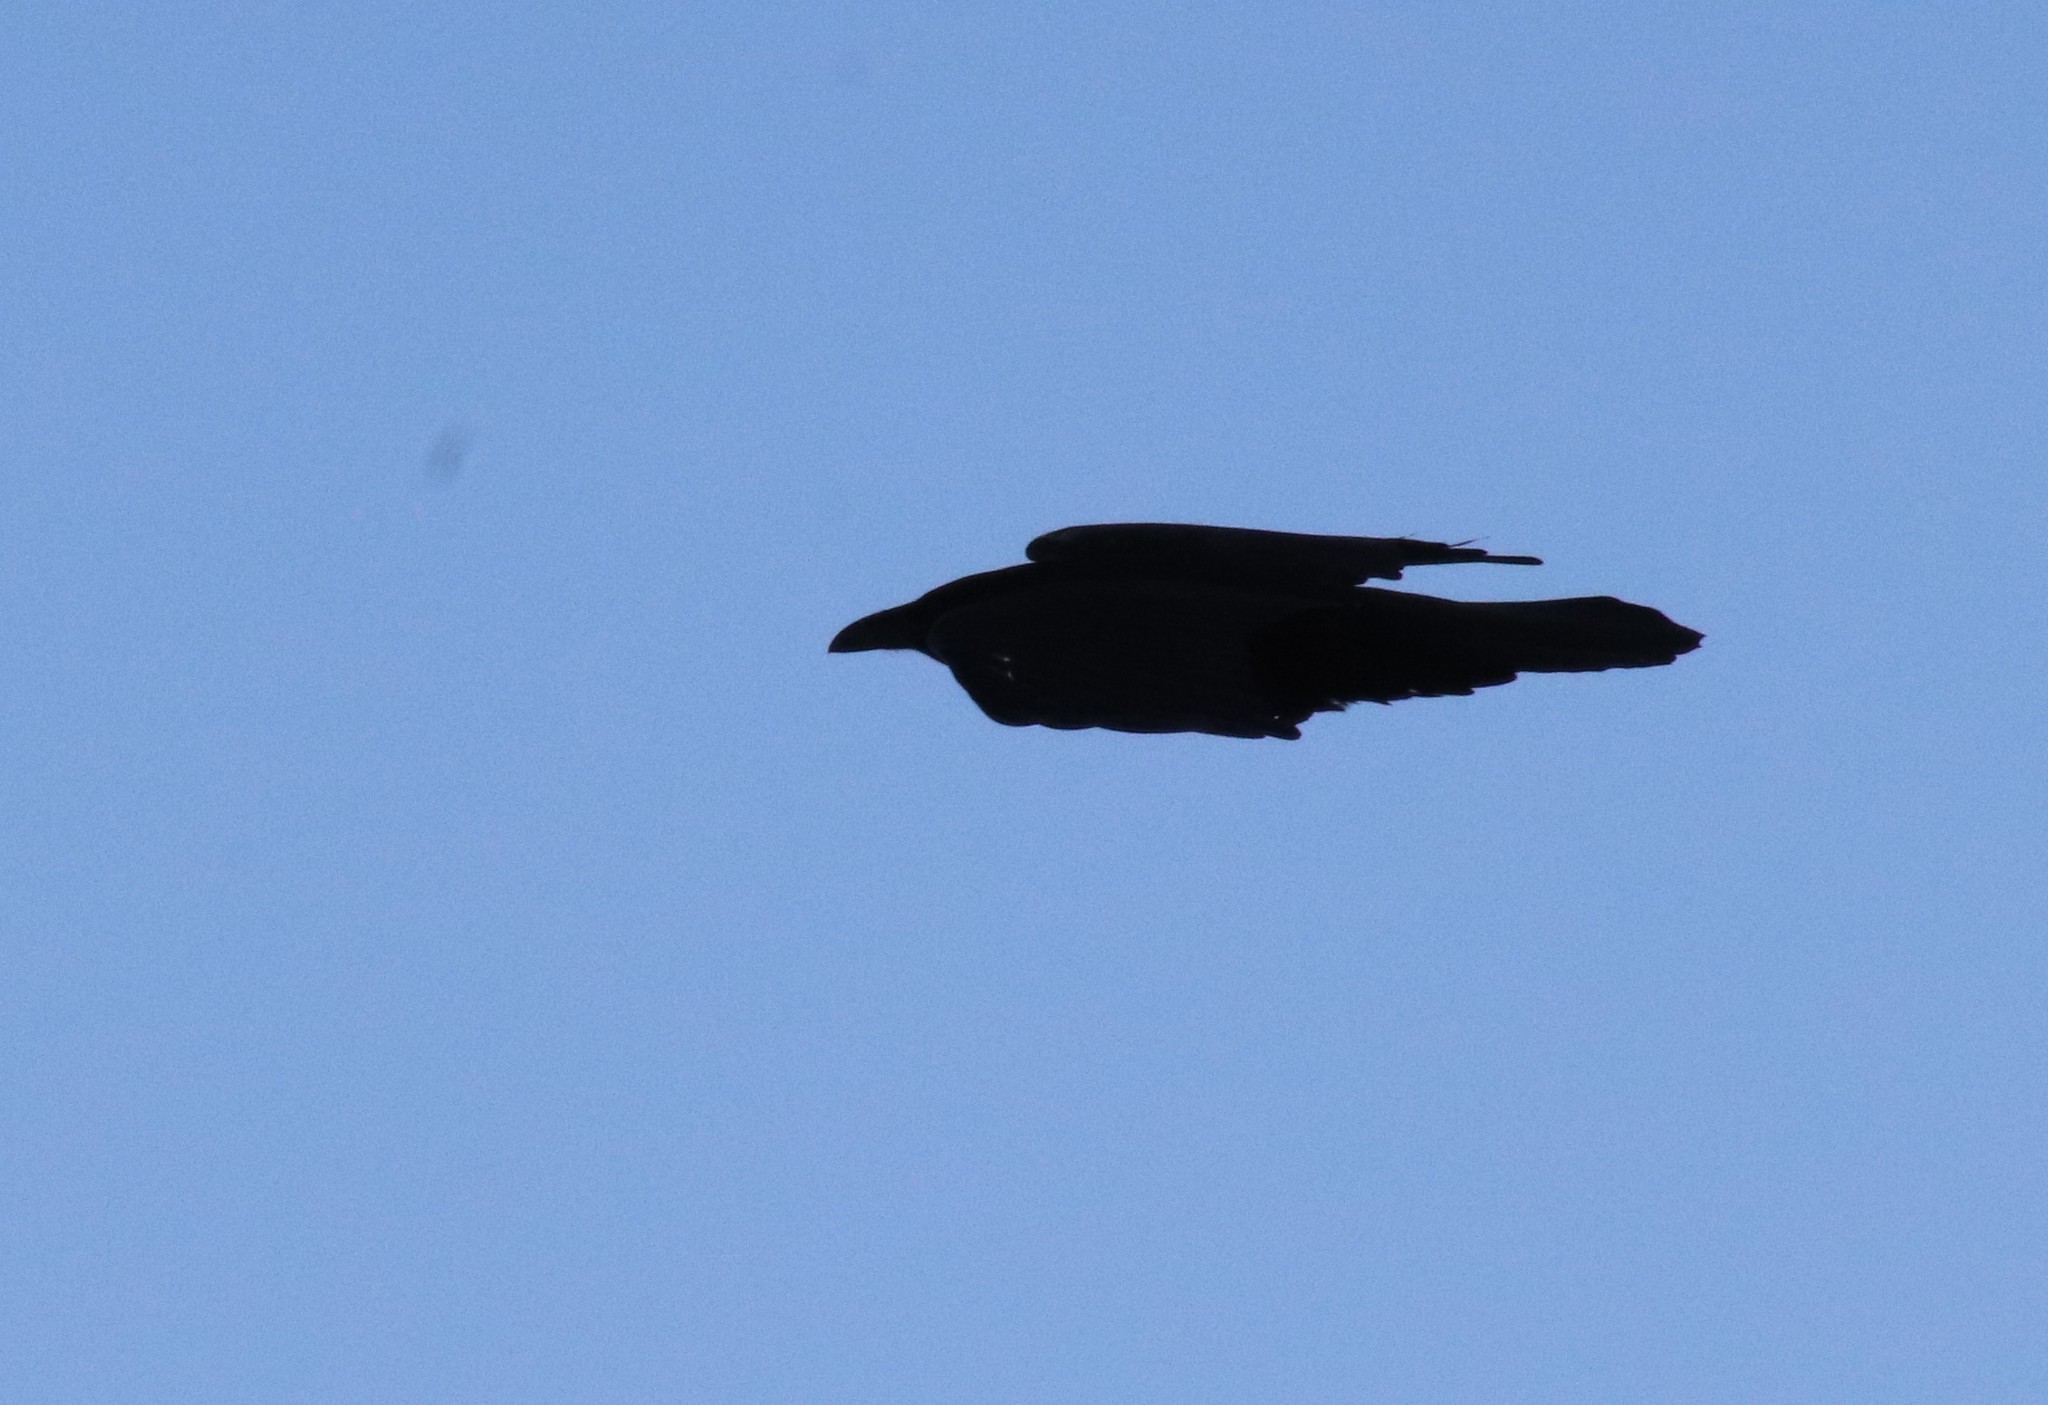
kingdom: Animalia
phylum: Chordata
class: Aves
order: Passeriformes
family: Corvidae
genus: Corvus
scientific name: Corvus corax
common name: Common raven
